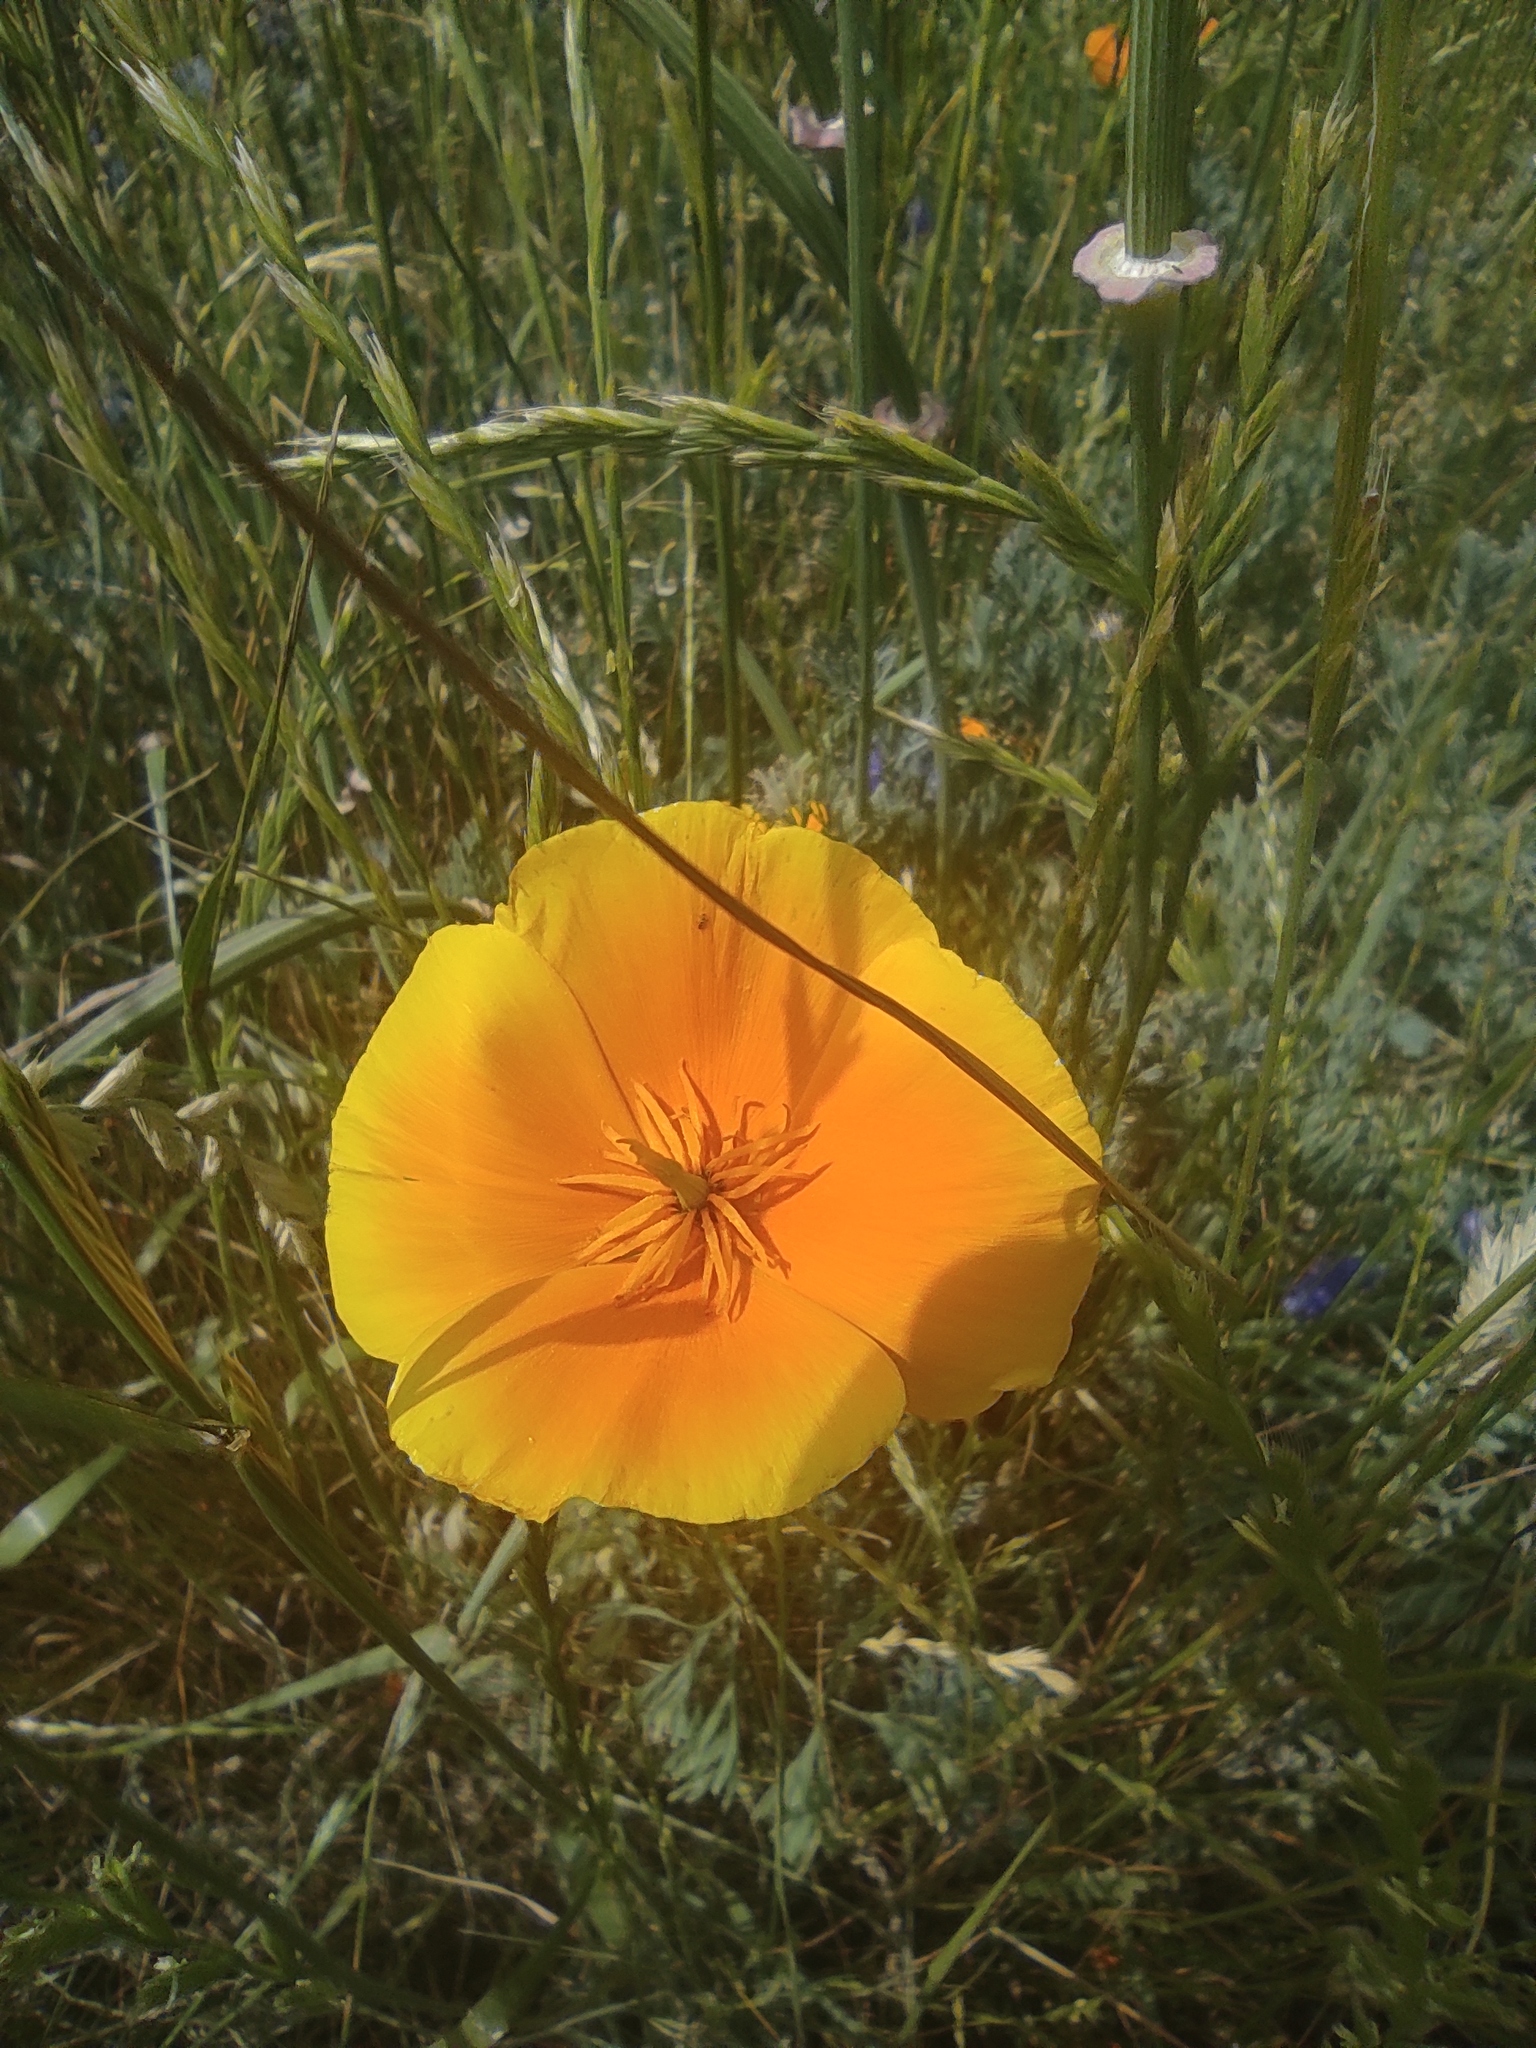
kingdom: Plantae
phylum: Tracheophyta
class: Magnoliopsida
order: Ranunculales
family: Papaveraceae
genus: Eschscholzia
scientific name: Eschscholzia californica
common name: California poppy
